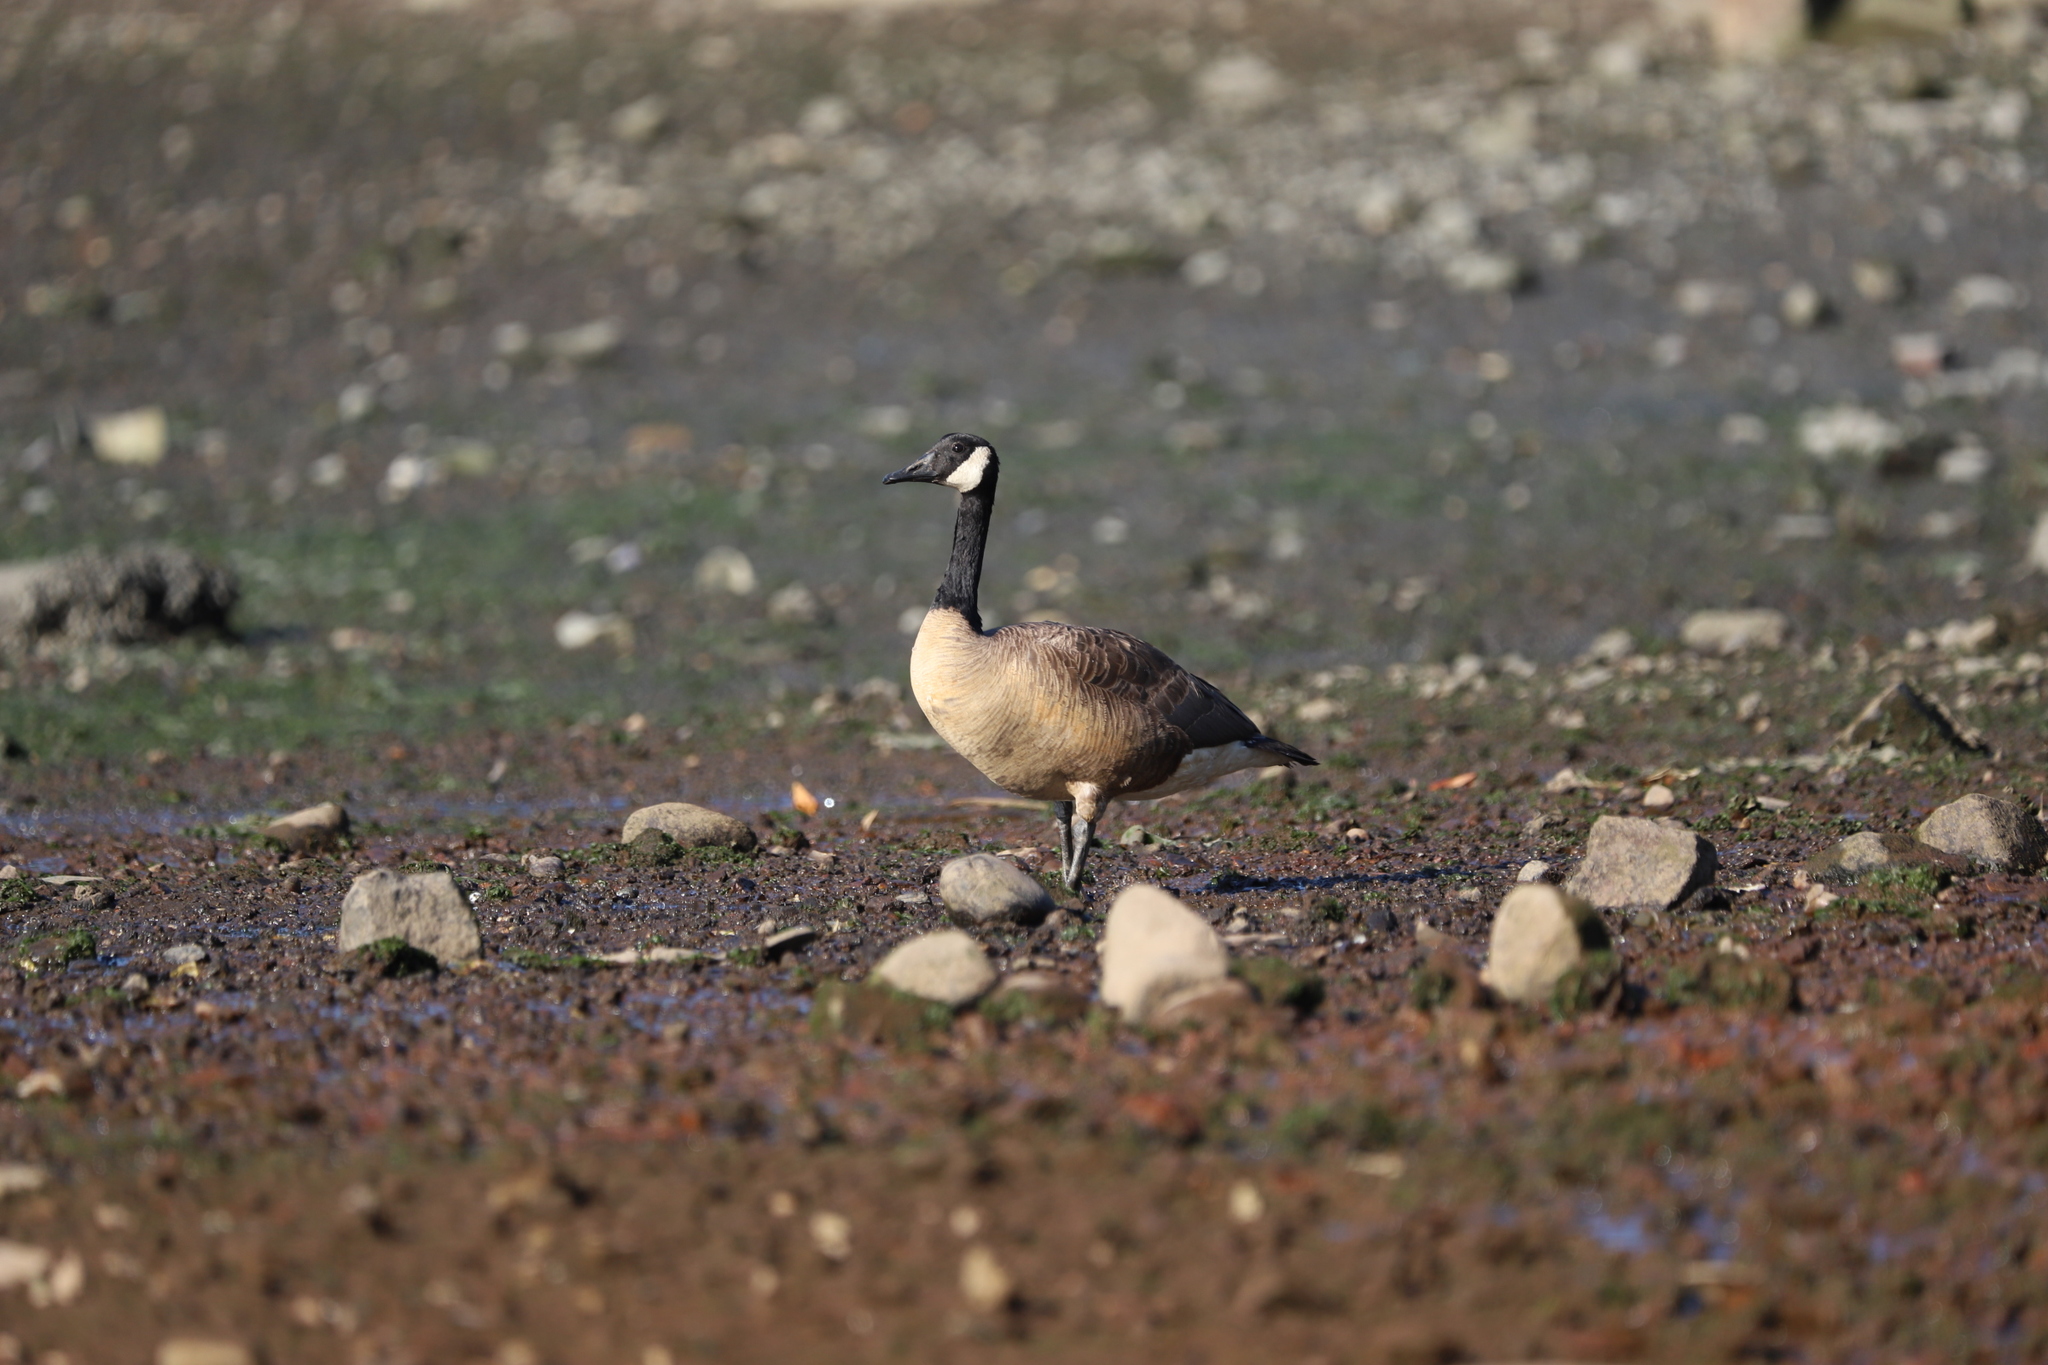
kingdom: Animalia
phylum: Chordata
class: Aves
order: Anseriformes
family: Anatidae
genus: Branta
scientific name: Branta canadensis
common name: Canada goose
